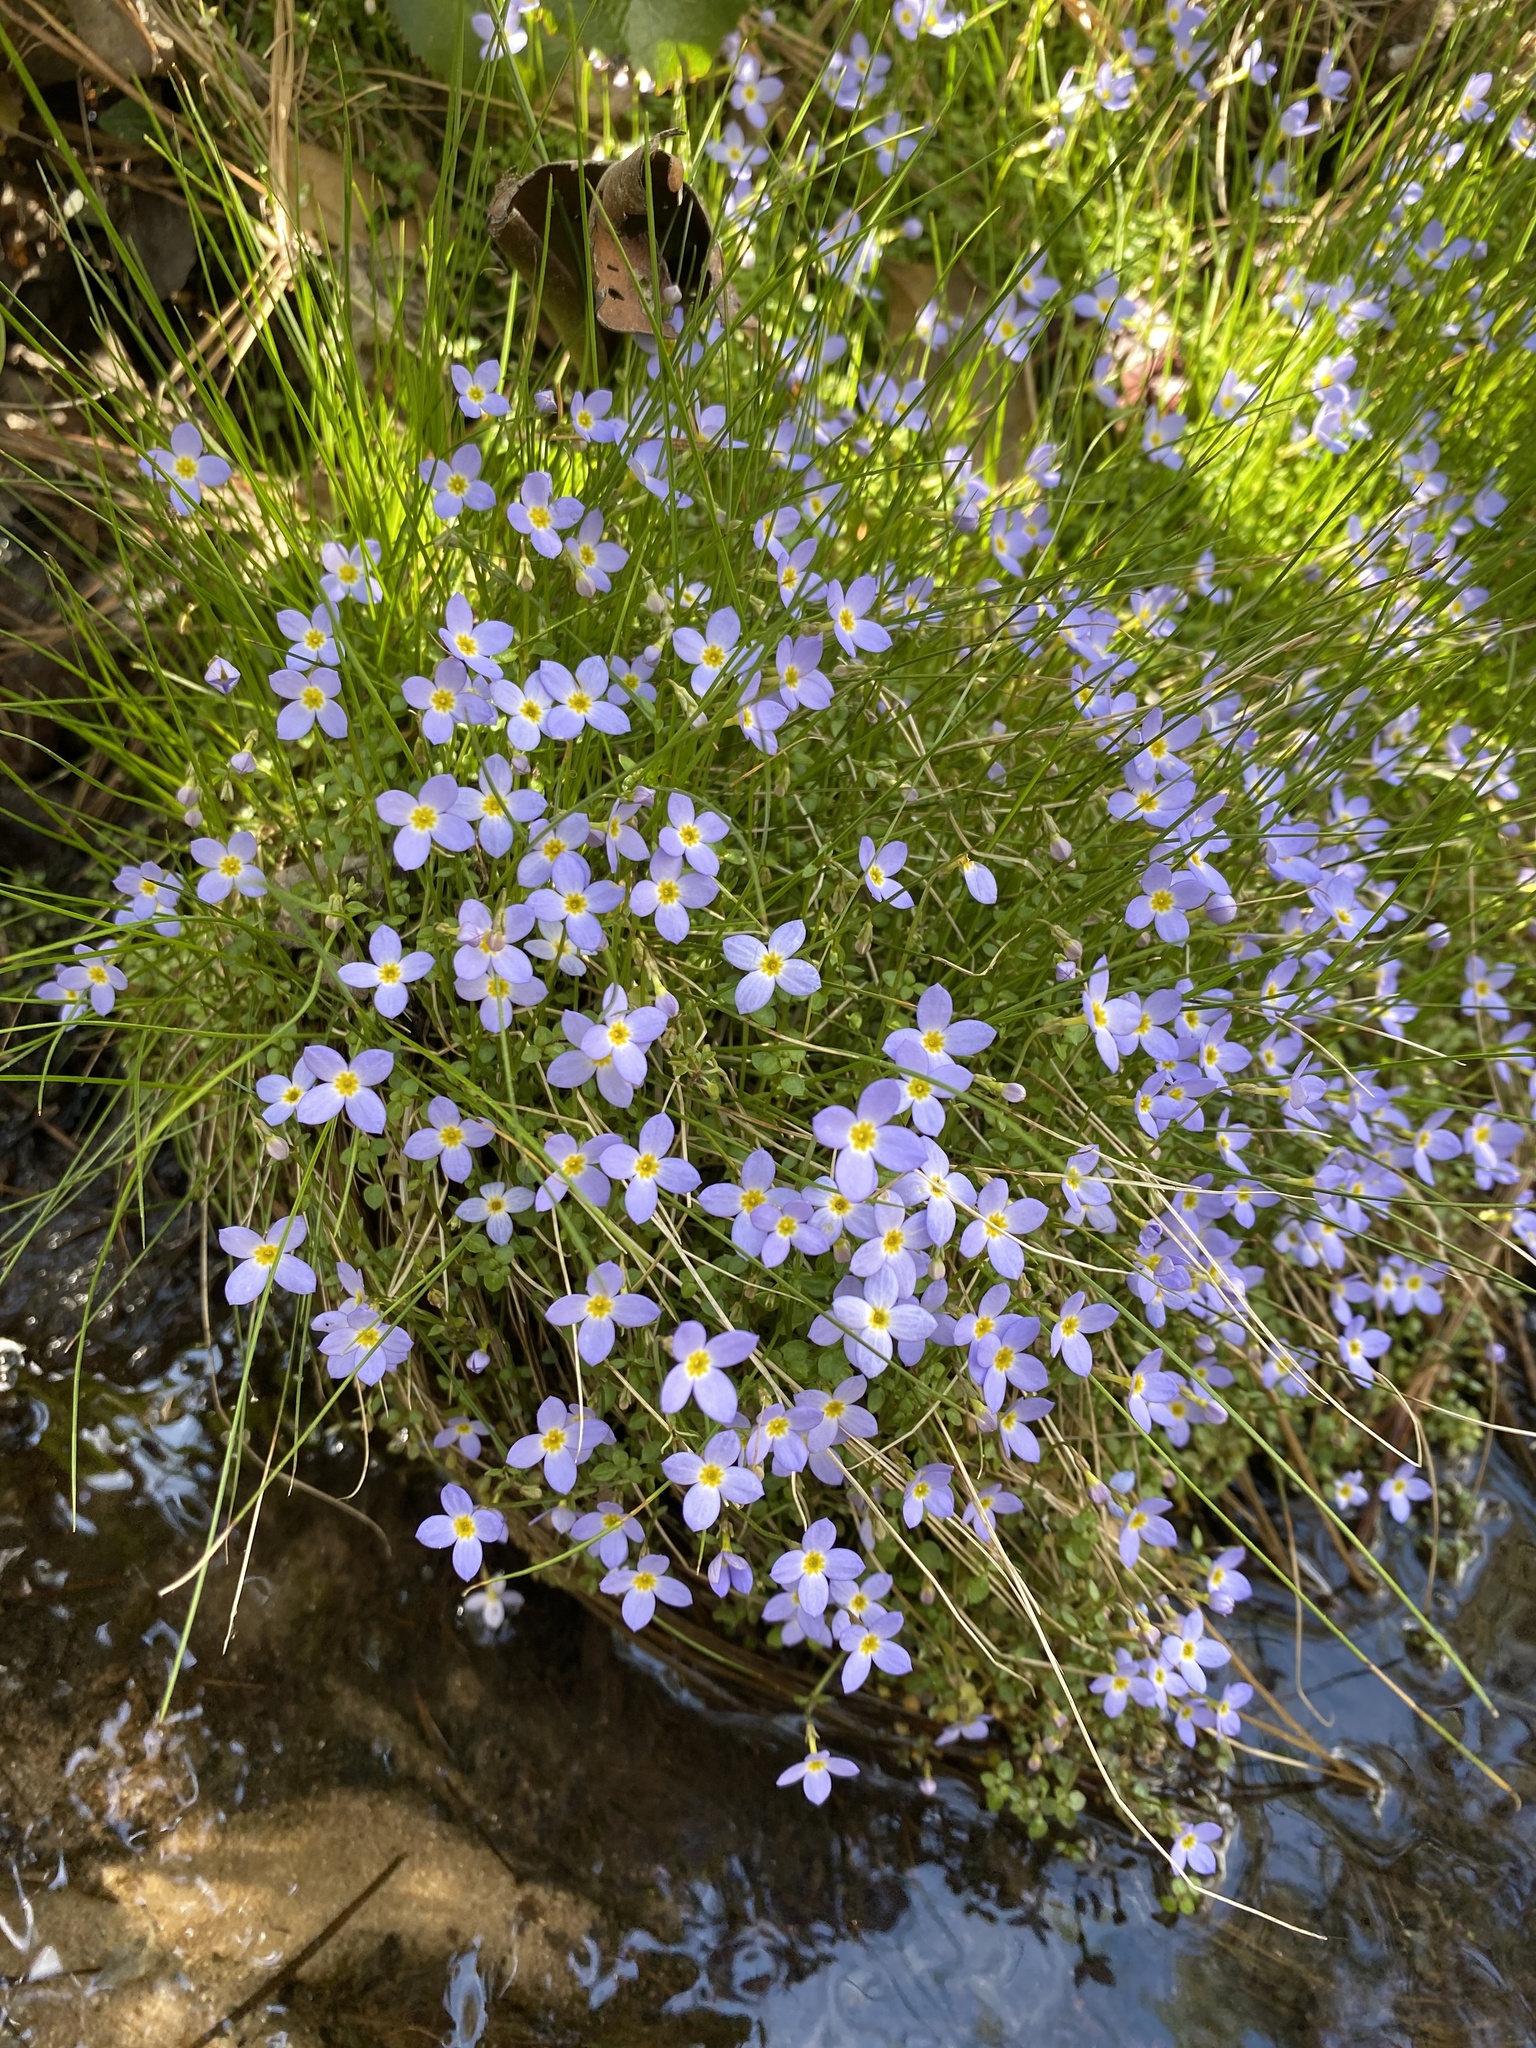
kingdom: Plantae
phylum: Tracheophyta
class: Magnoliopsida
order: Gentianales
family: Rubiaceae
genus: Houstonia
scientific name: Houstonia serpyllifolia
